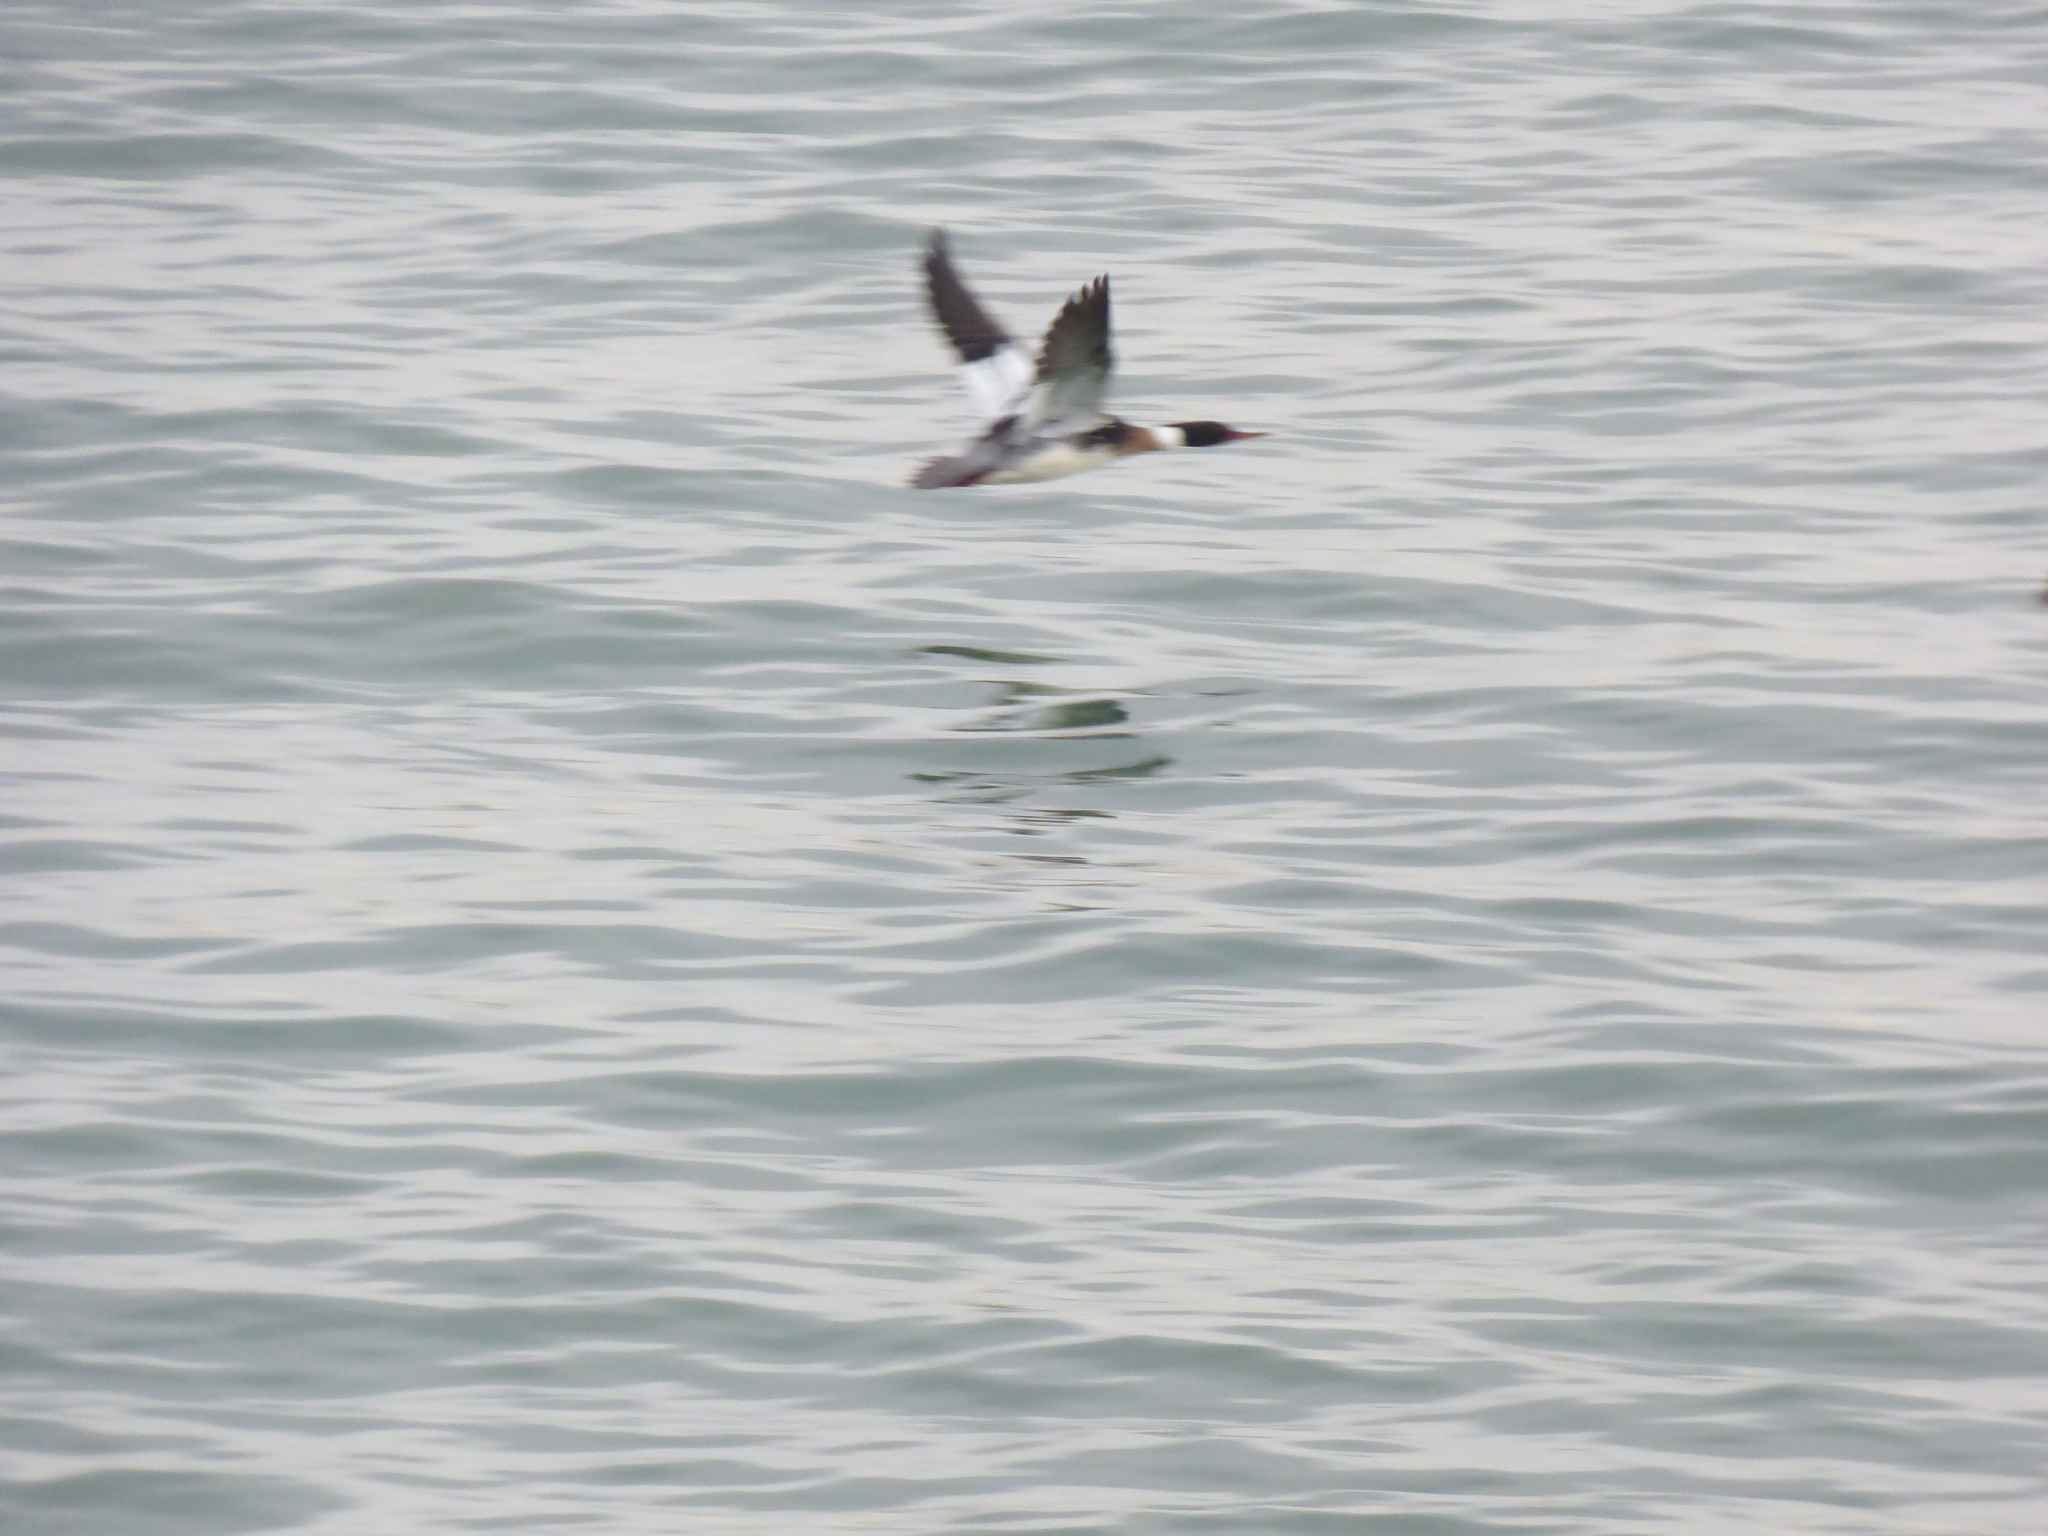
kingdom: Animalia
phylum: Chordata
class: Aves
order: Anseriformes
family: Anatidae
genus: Mergus
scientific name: Mergus serrator
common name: Red-breasted merganser
